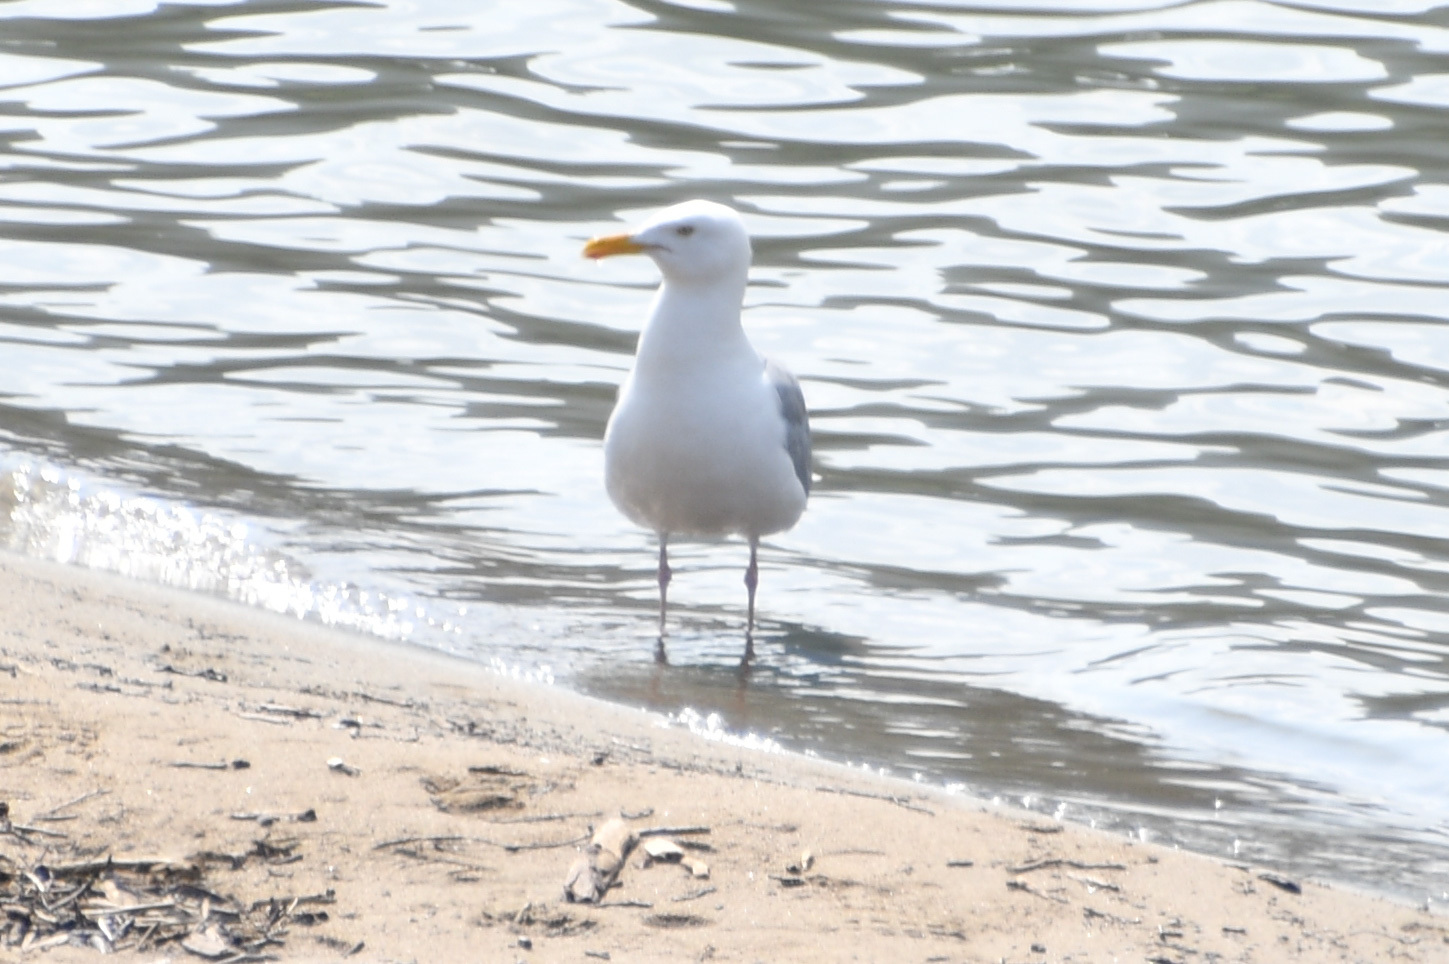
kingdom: Animalia
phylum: Chordata
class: Aves
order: Charadriiformes
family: Laridae
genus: Larus
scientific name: Larus argentatus
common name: Herring gull
